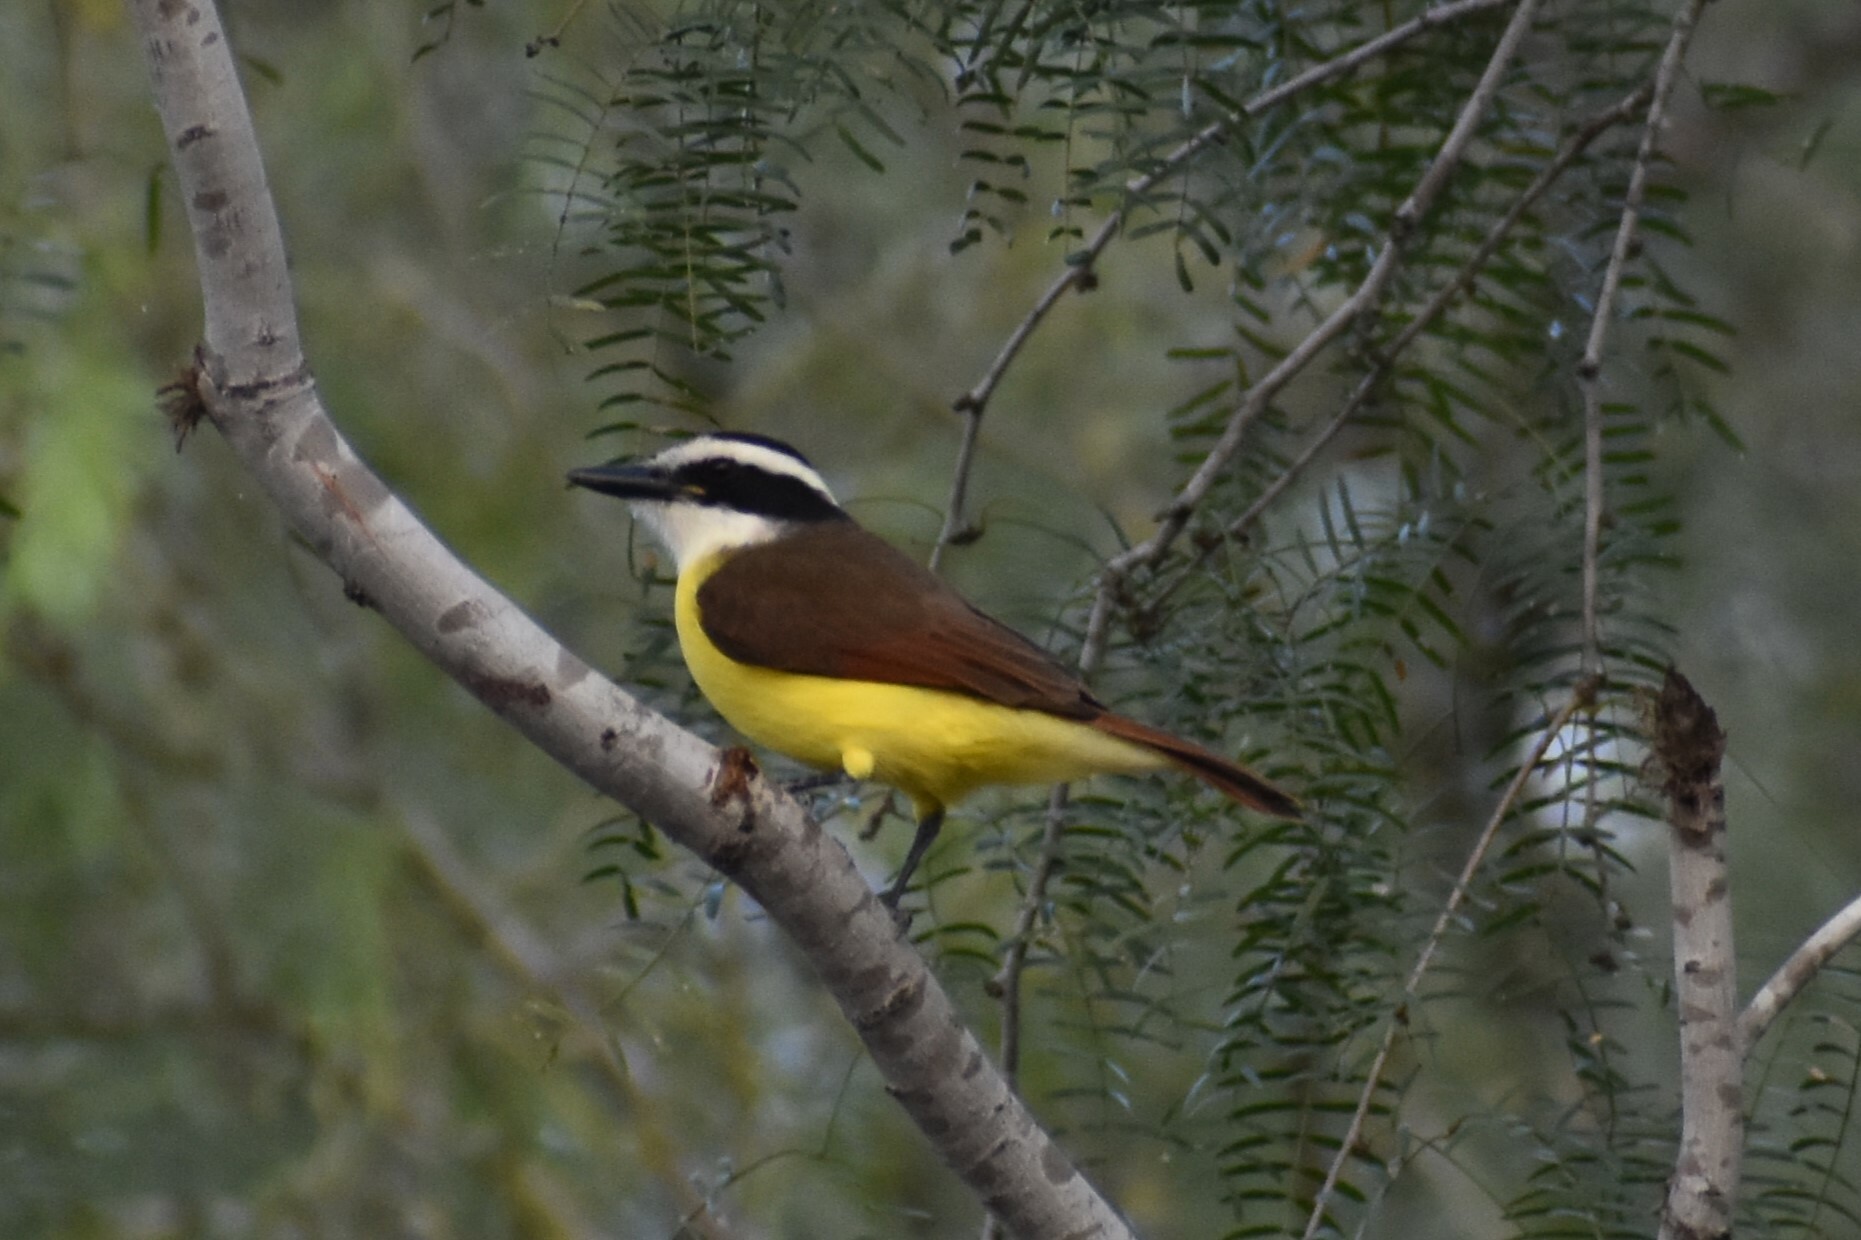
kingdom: Animalia
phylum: Chordata
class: Aves
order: Passeriformes
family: Tyrannidae
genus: Pitangus
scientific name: Pitangus sulphuratus
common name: Great kiskadee
